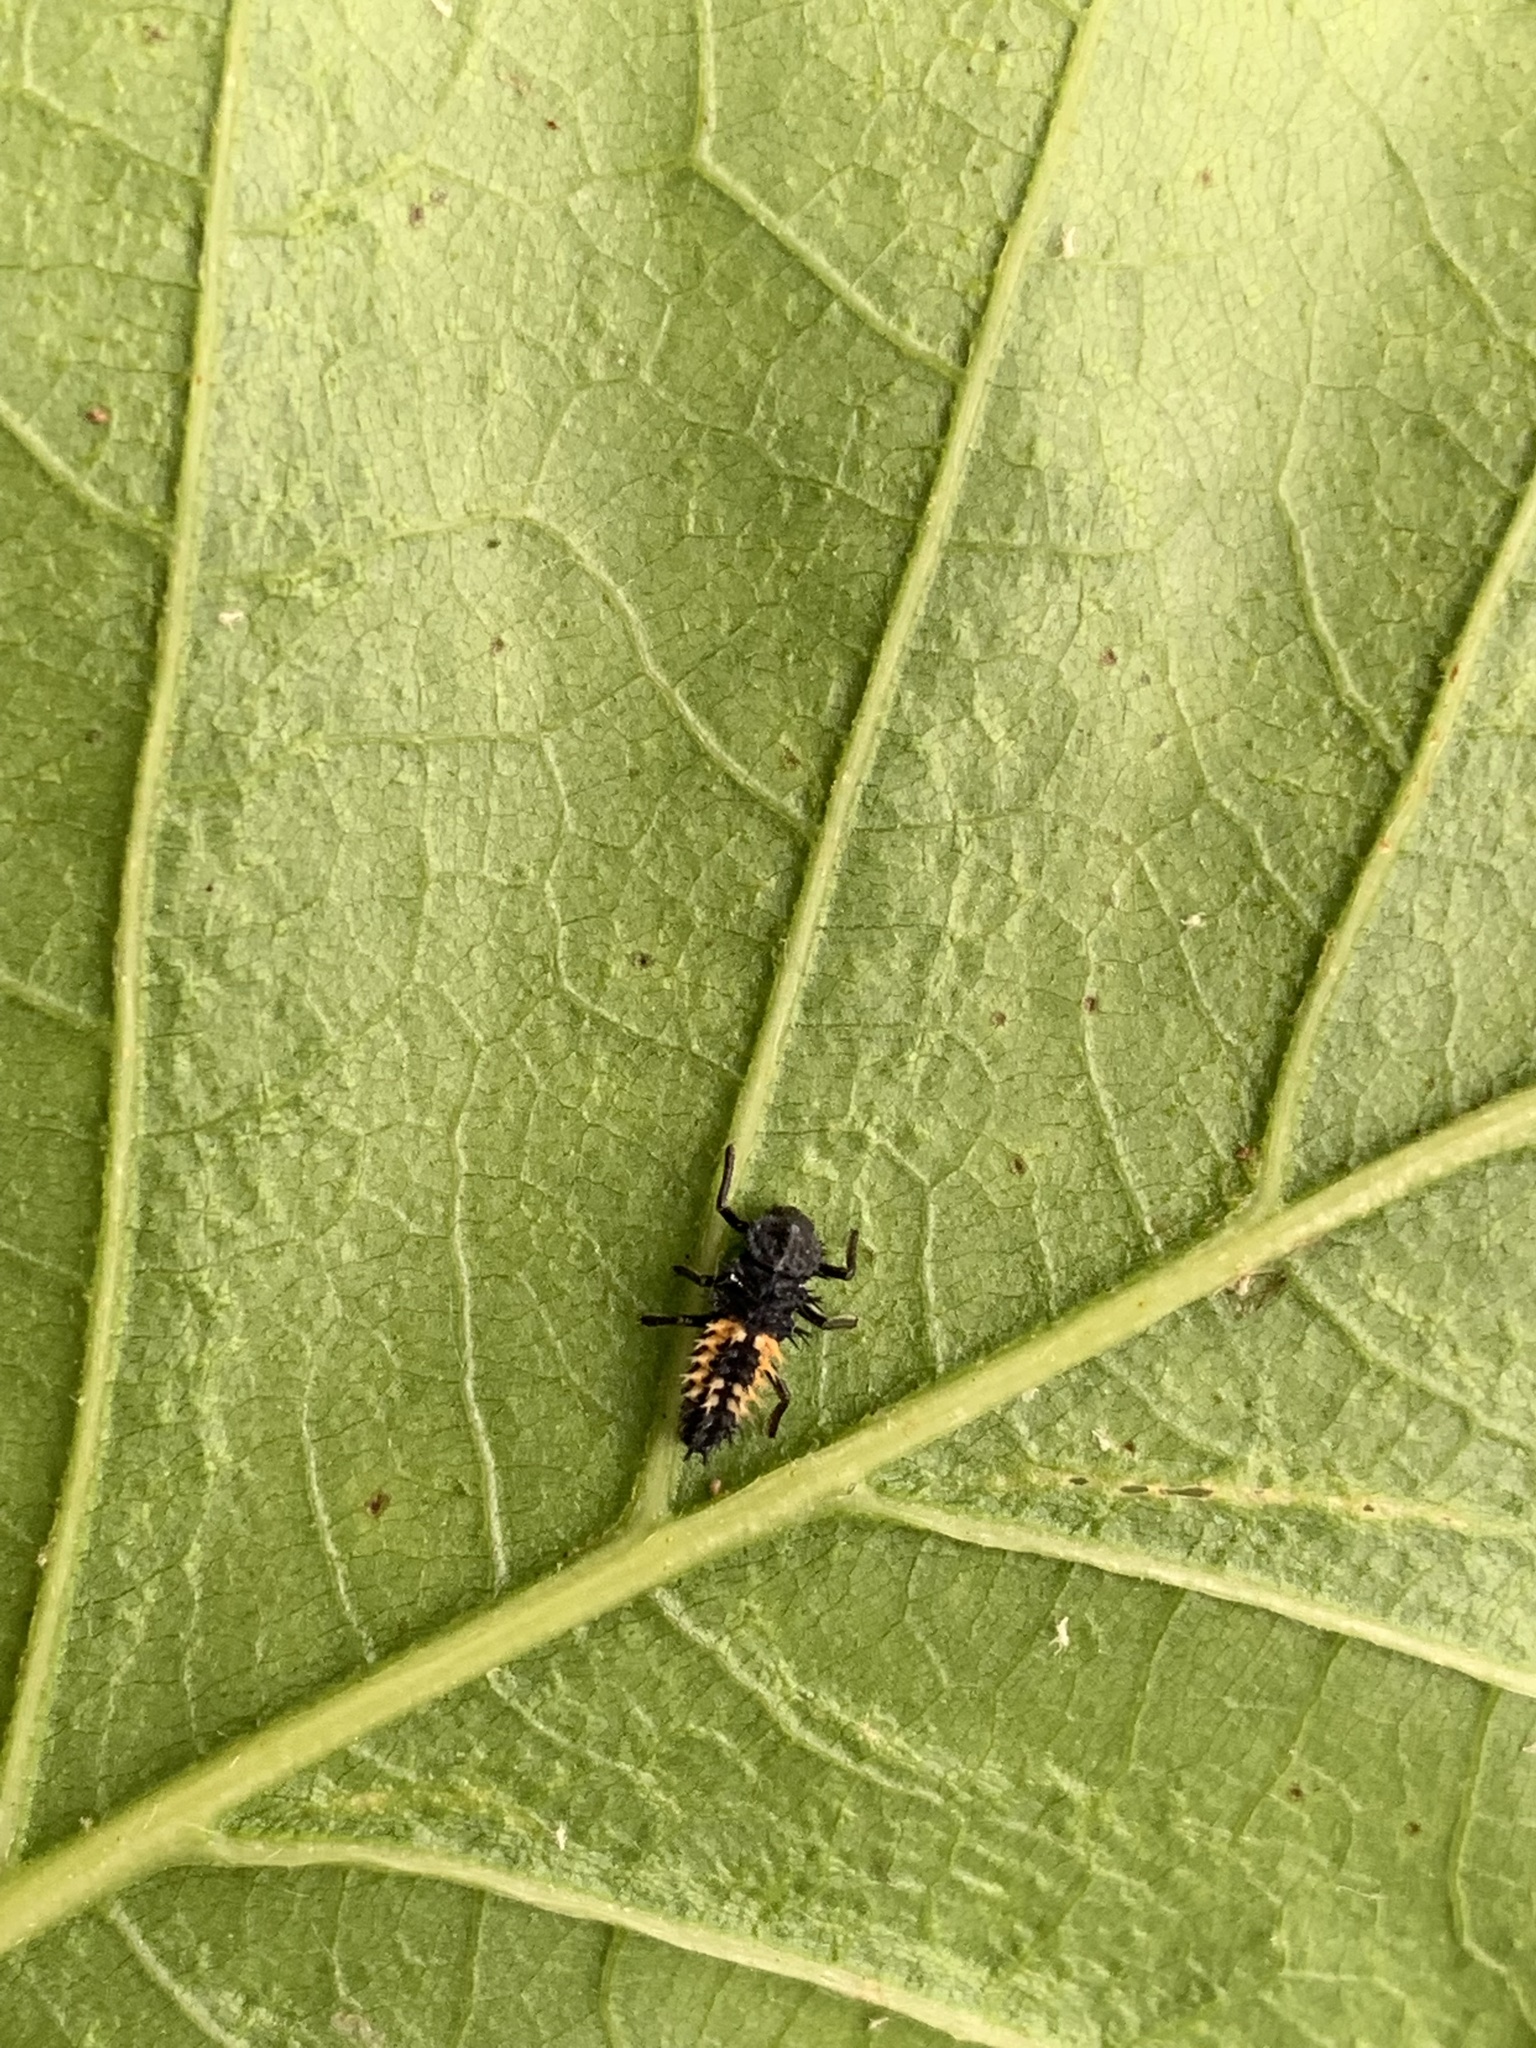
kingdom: Animalia
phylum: Arthropoda
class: Insecta
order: Coleoptera
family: Coccinellidae
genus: Harmonia
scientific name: Harmonia axyridis
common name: Harlequin ladybird
